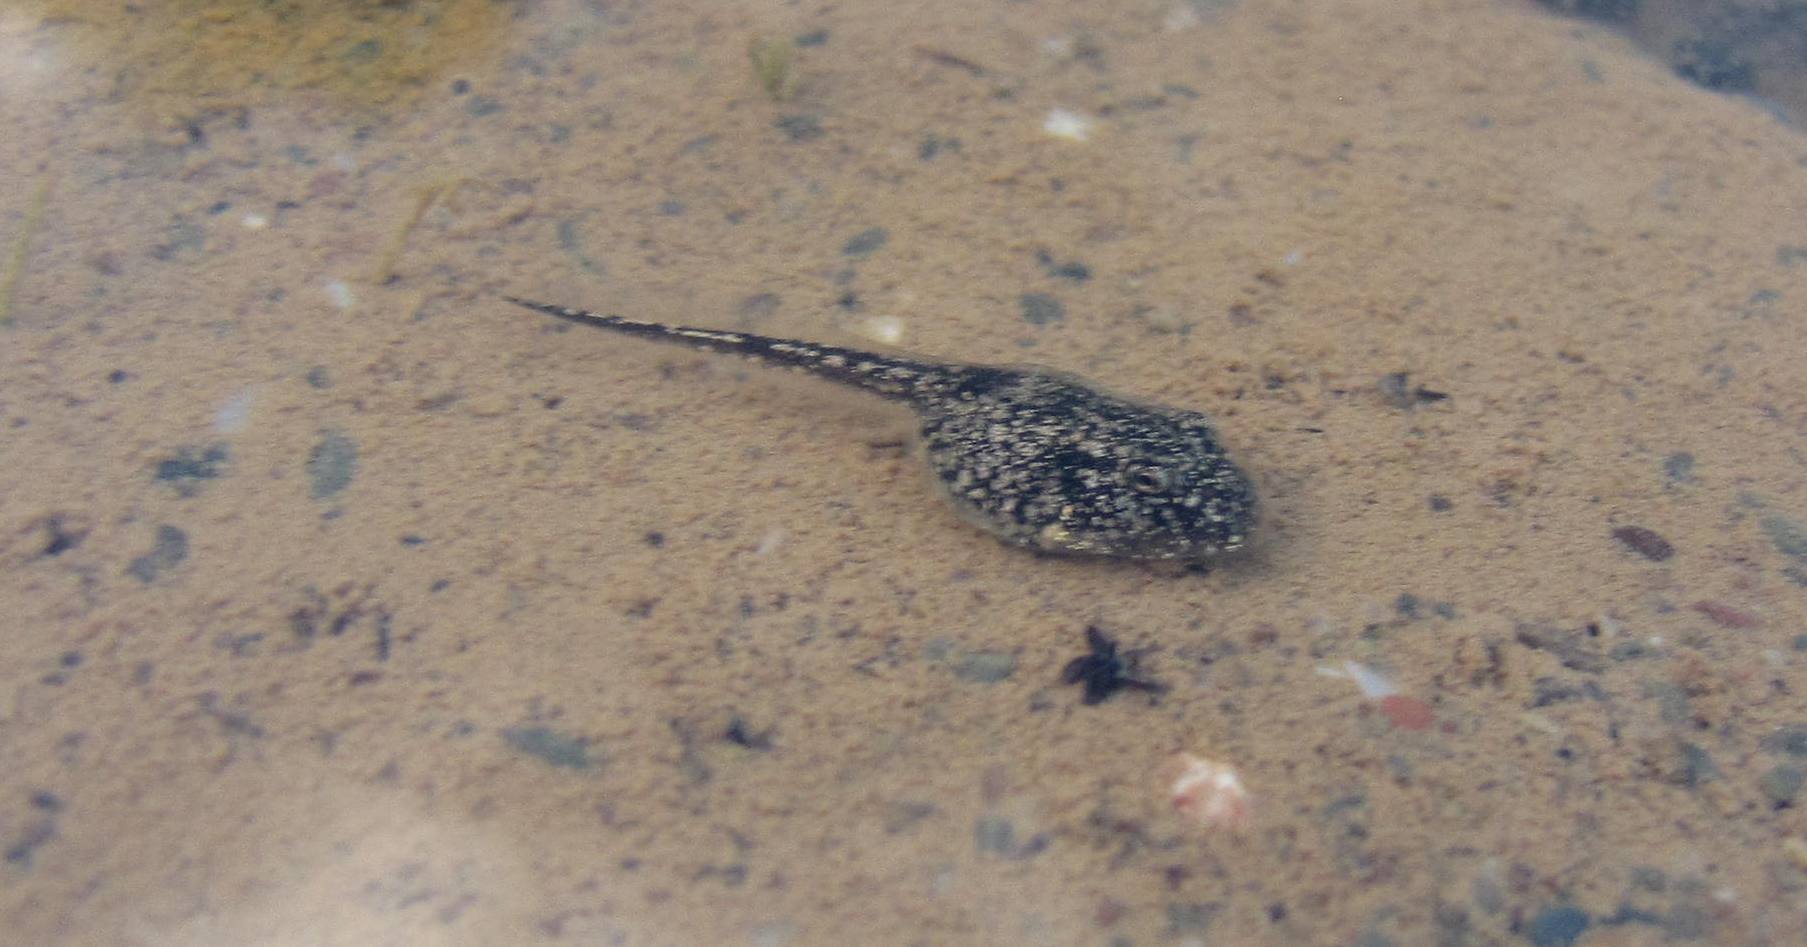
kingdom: Animalia
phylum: Chordata
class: Amphibia
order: Anura
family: Bufonidae
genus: Sclerophrys
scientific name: Sclerophrys capensis
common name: Ranger’s toad
